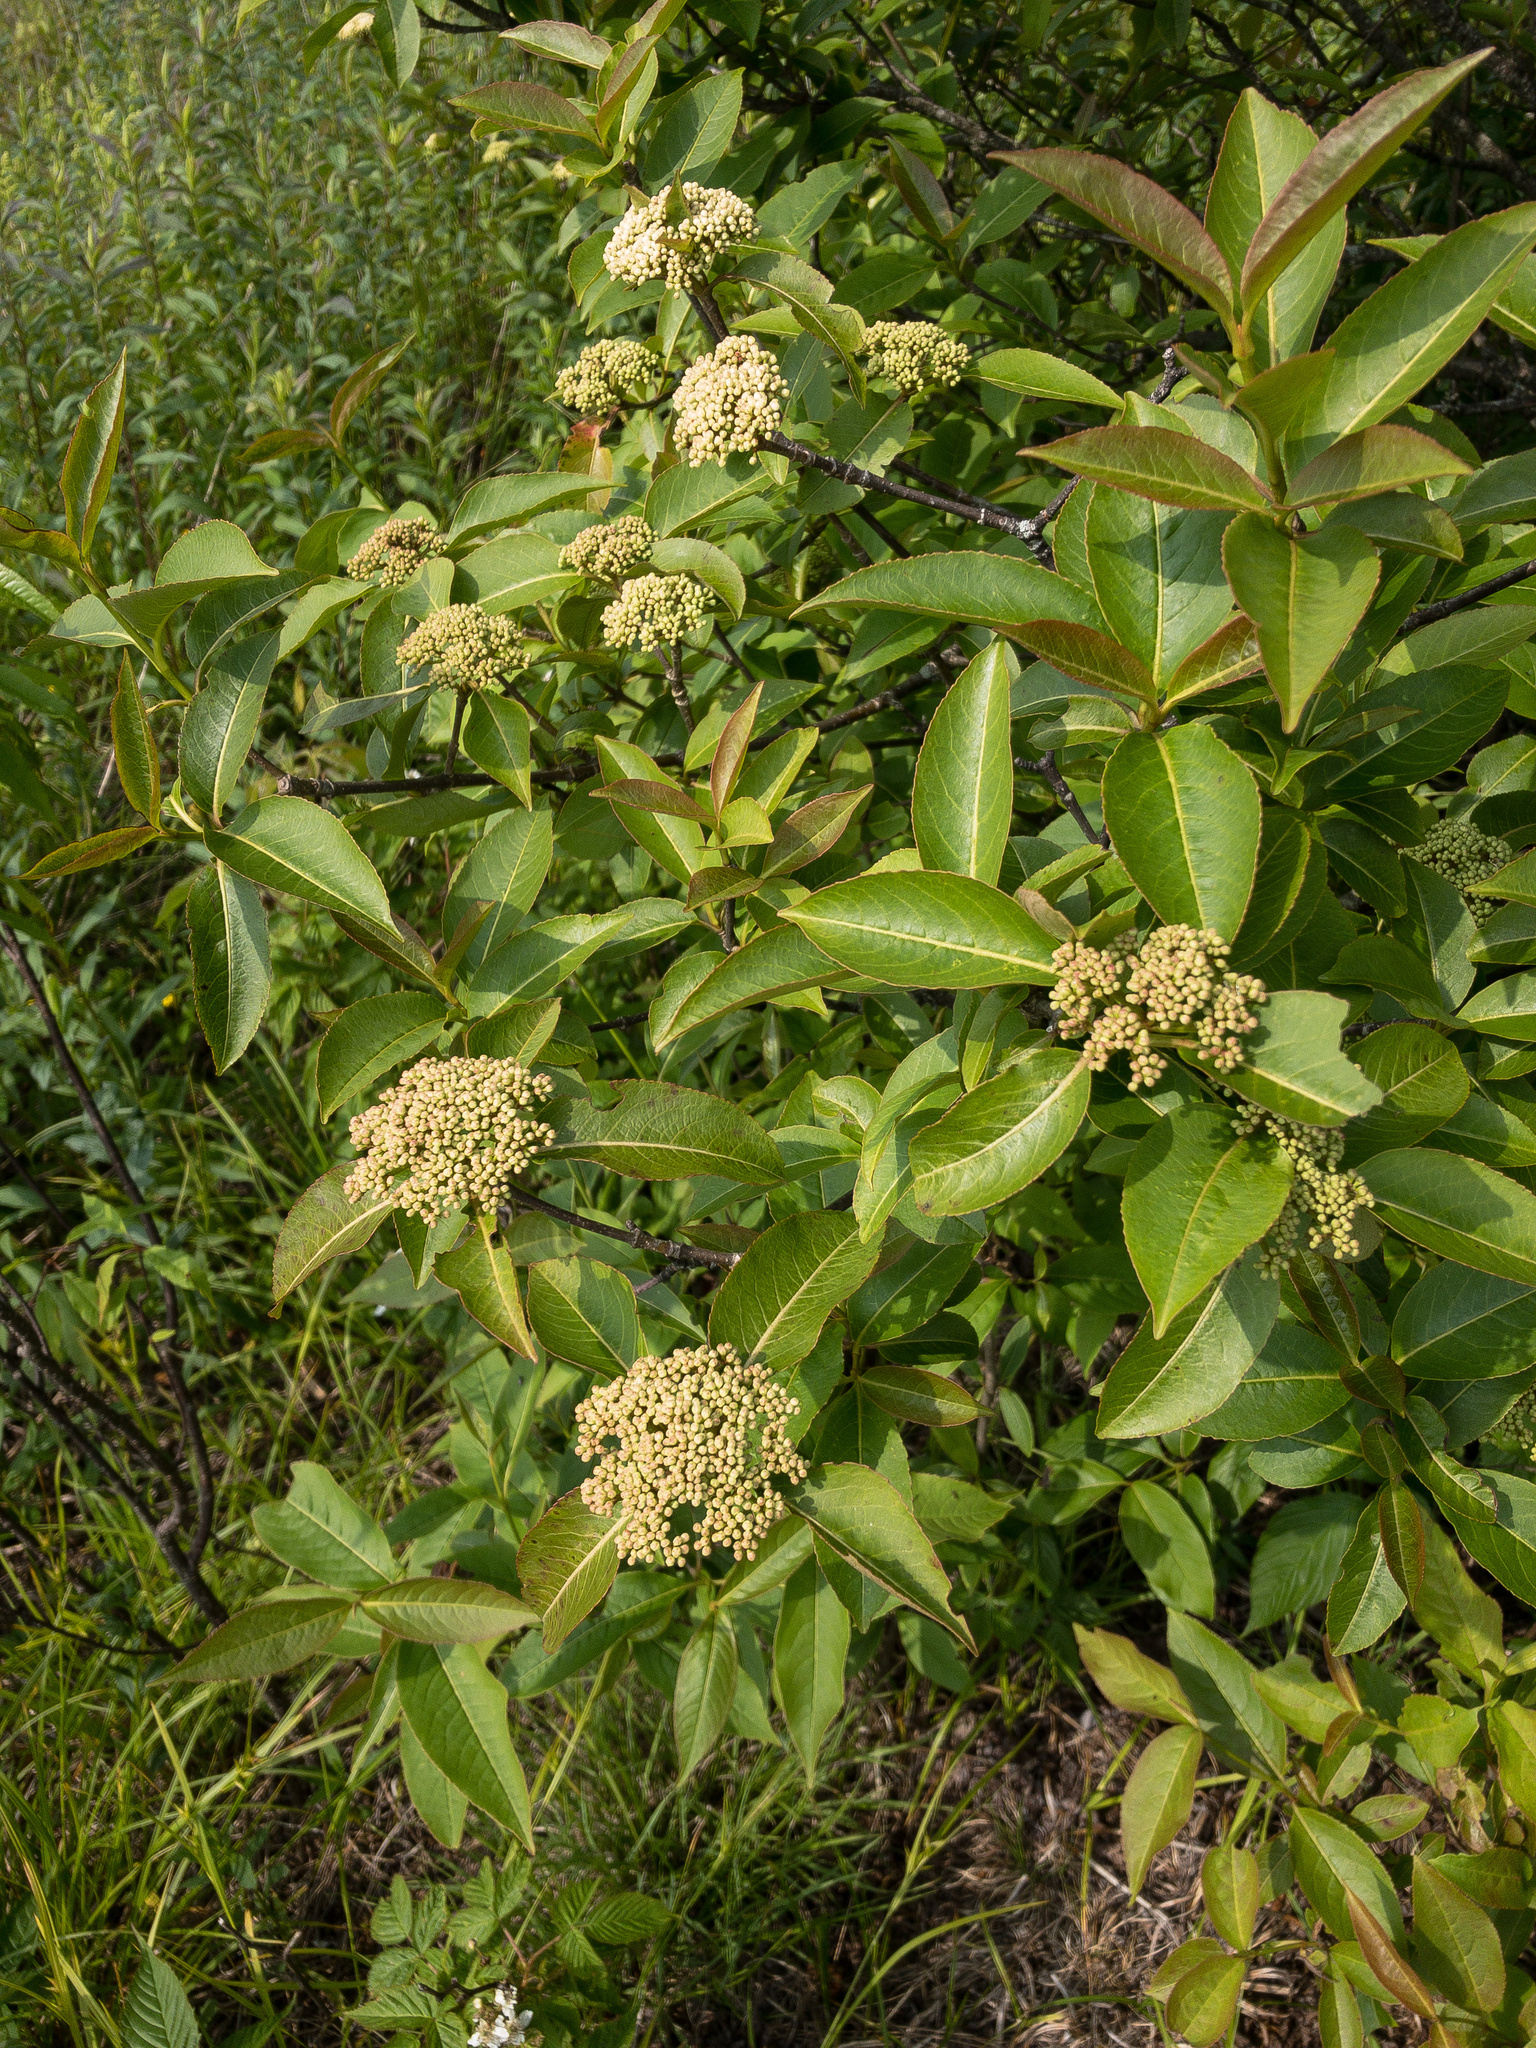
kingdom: Plantae
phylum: Tracheophyta
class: Magnoliopsida
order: Dipsacales
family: Viburnaceae
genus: Viburnum
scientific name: Viburnum cassinoides
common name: Swamp haw
